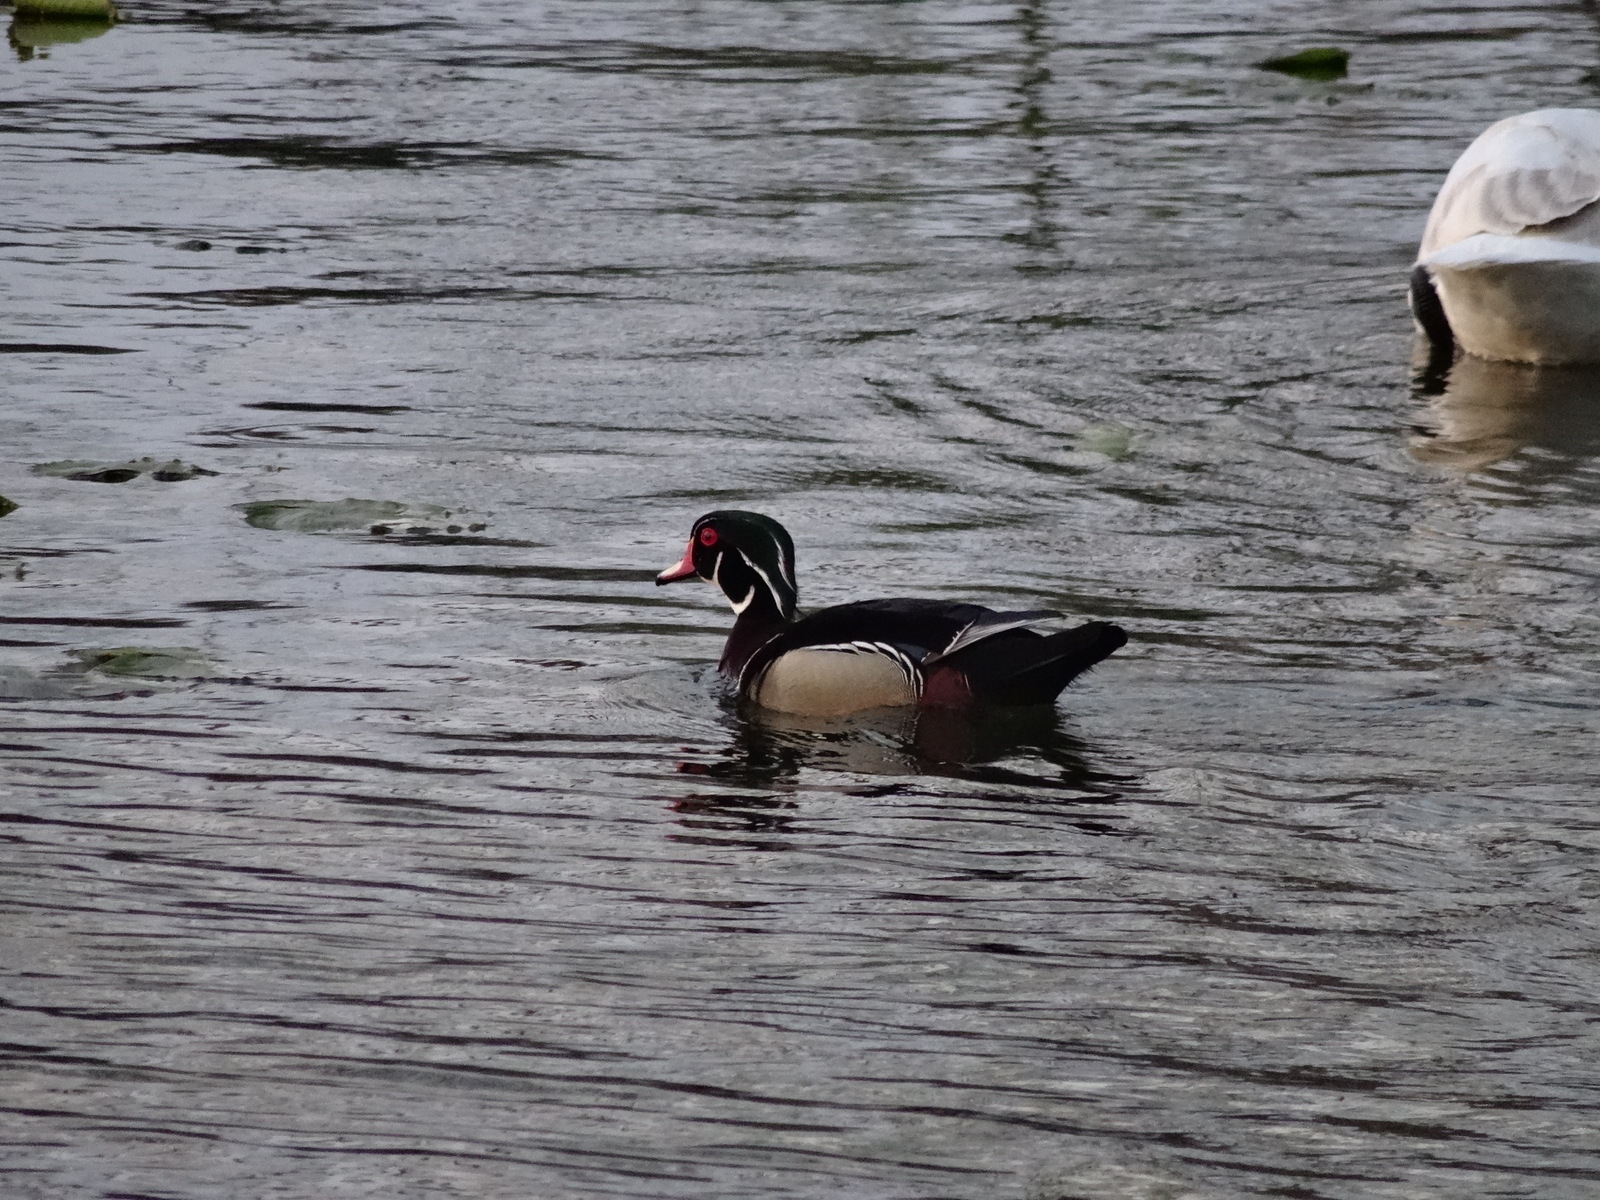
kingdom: Animalia
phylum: Chordata
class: Aves
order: Anseriformes
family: Anatidae
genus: Aix
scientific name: Aix sponsa
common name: Wood duck
